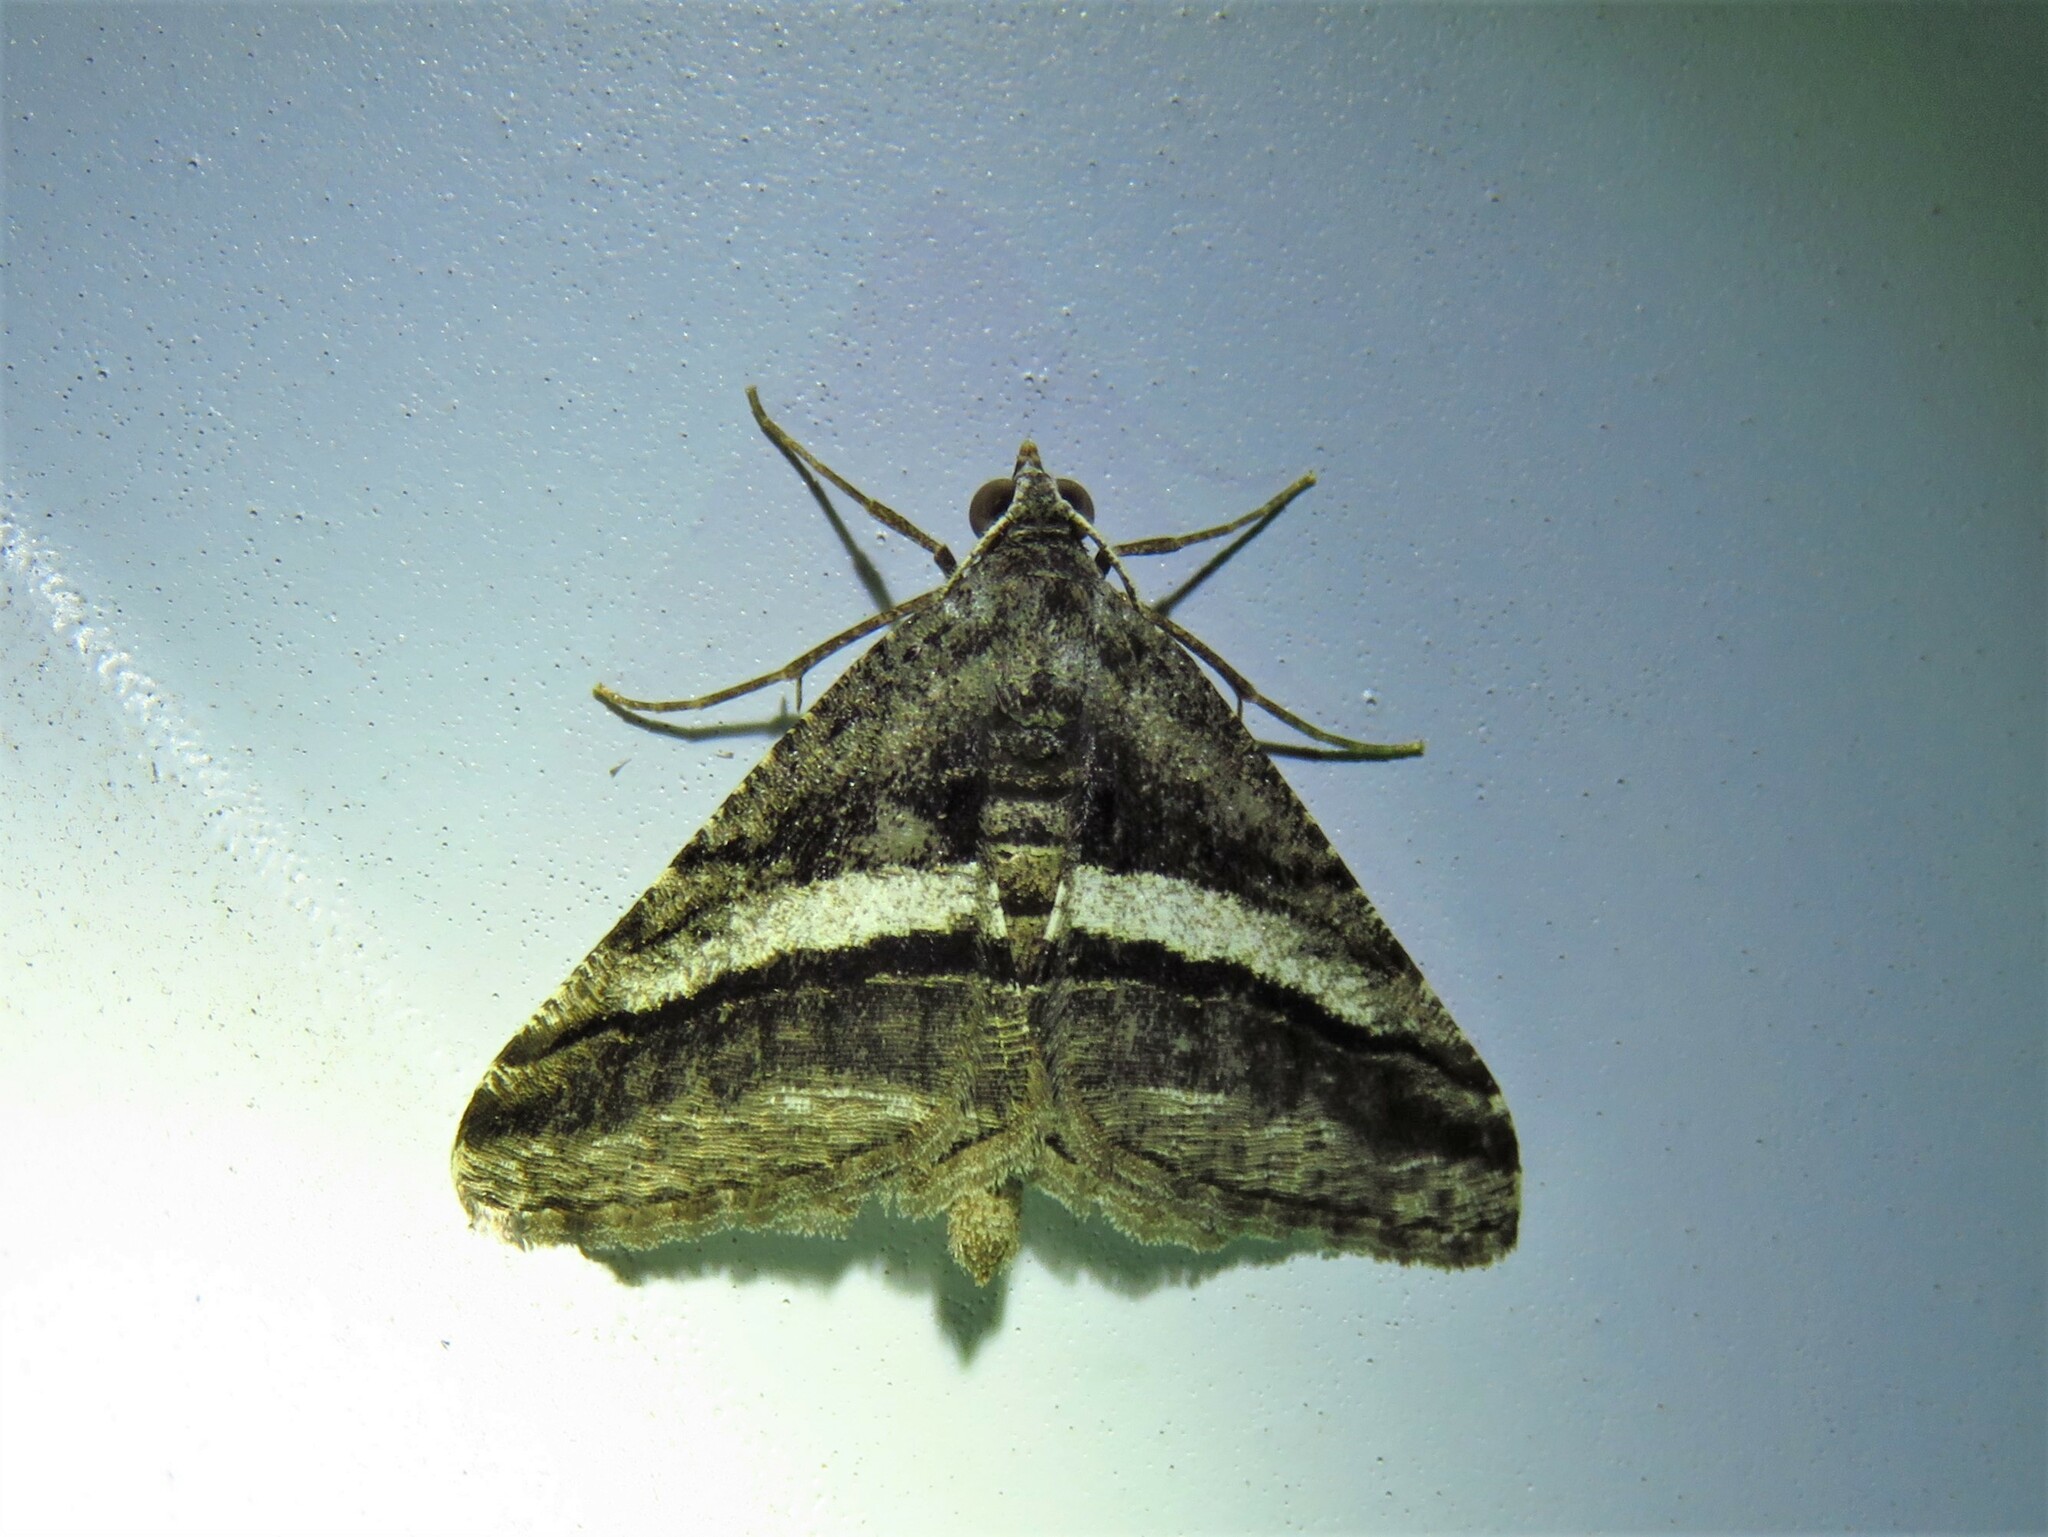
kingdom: Animalia
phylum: Arthropoda
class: Insecta
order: Lepidoptera
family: Geometridae
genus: Digrammia
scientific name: Digrammia atrofasciata
